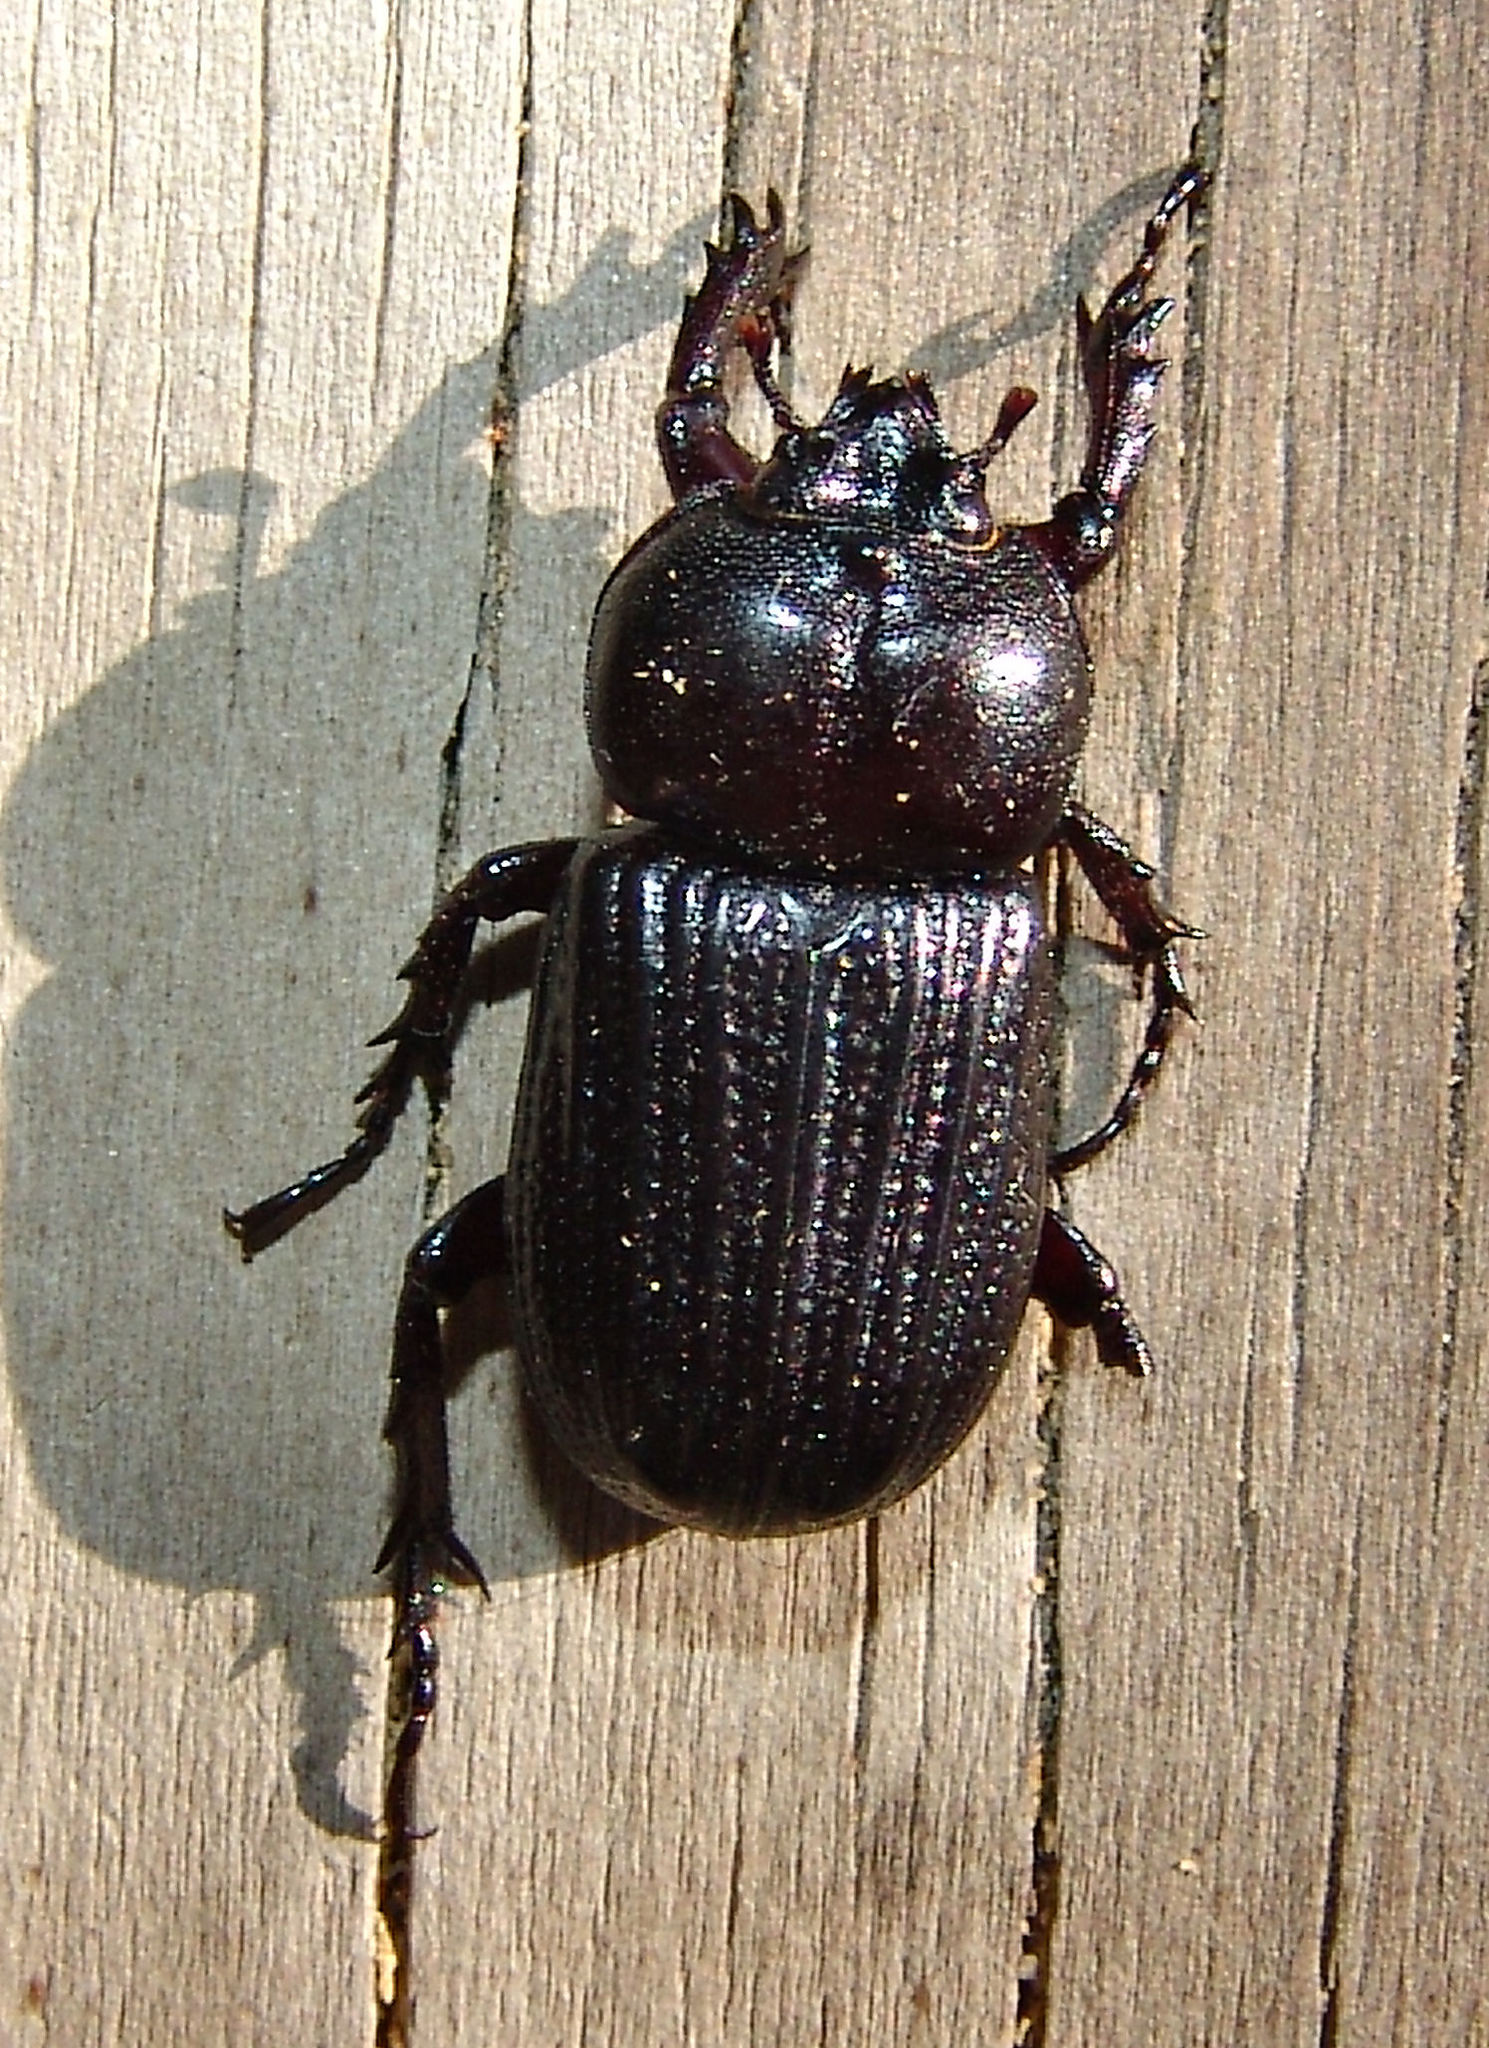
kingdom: Animalia
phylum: Arthropoda
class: Insecta
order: Coleoptera
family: Scarabaeidae
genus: Phileurus
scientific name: Phileurus valgus
